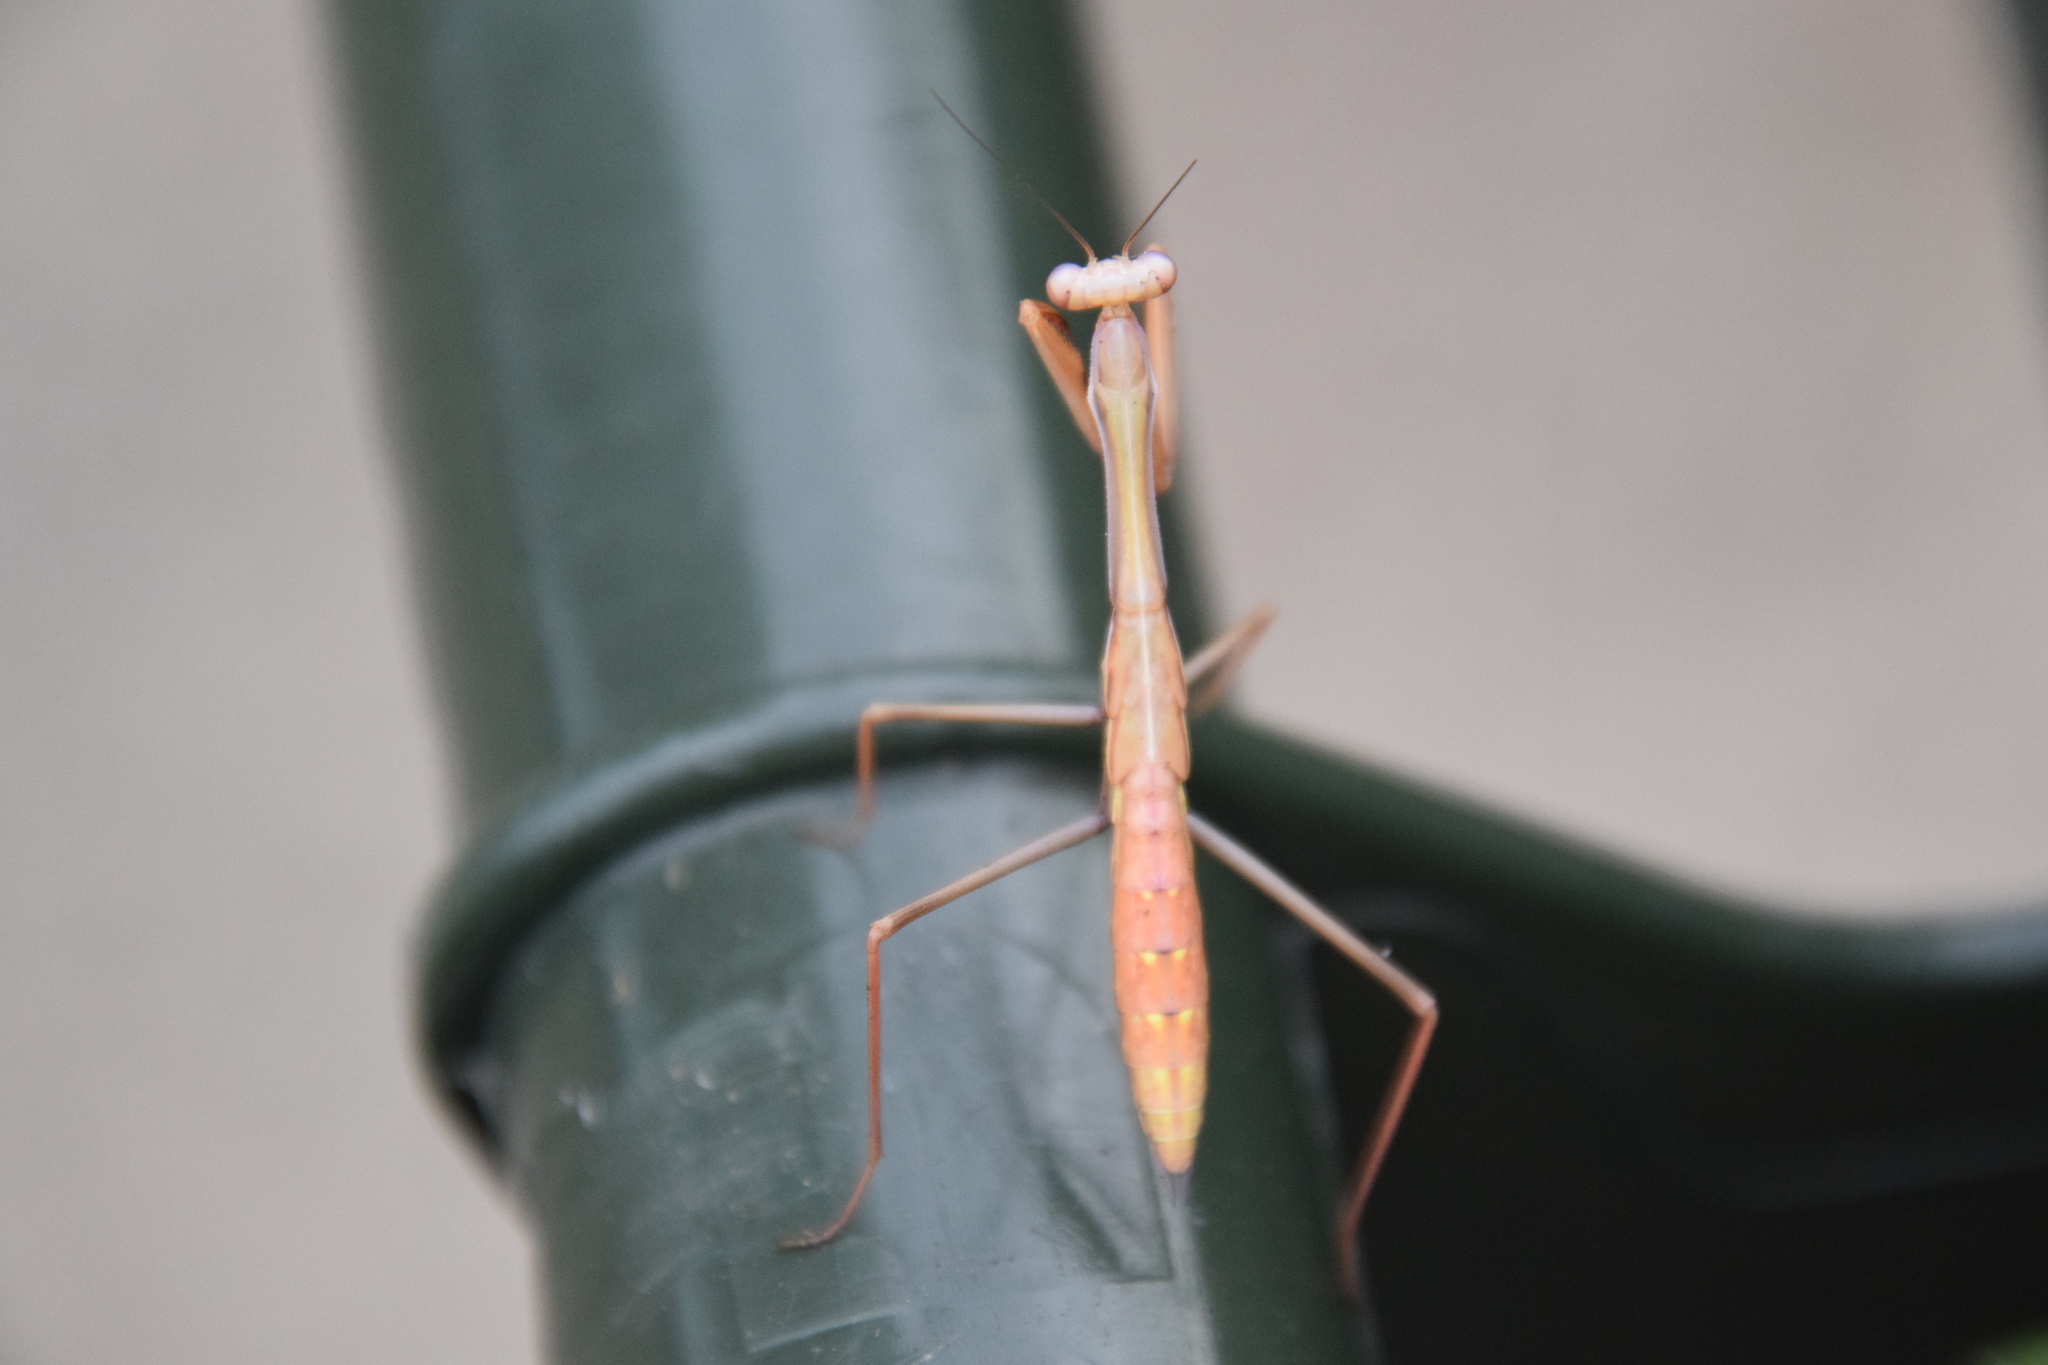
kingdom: Animalia
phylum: Arthropoda
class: Insecta
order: Mantodea
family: Mantidae
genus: Pseudomantis
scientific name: Pseudomantis albofimbriata
